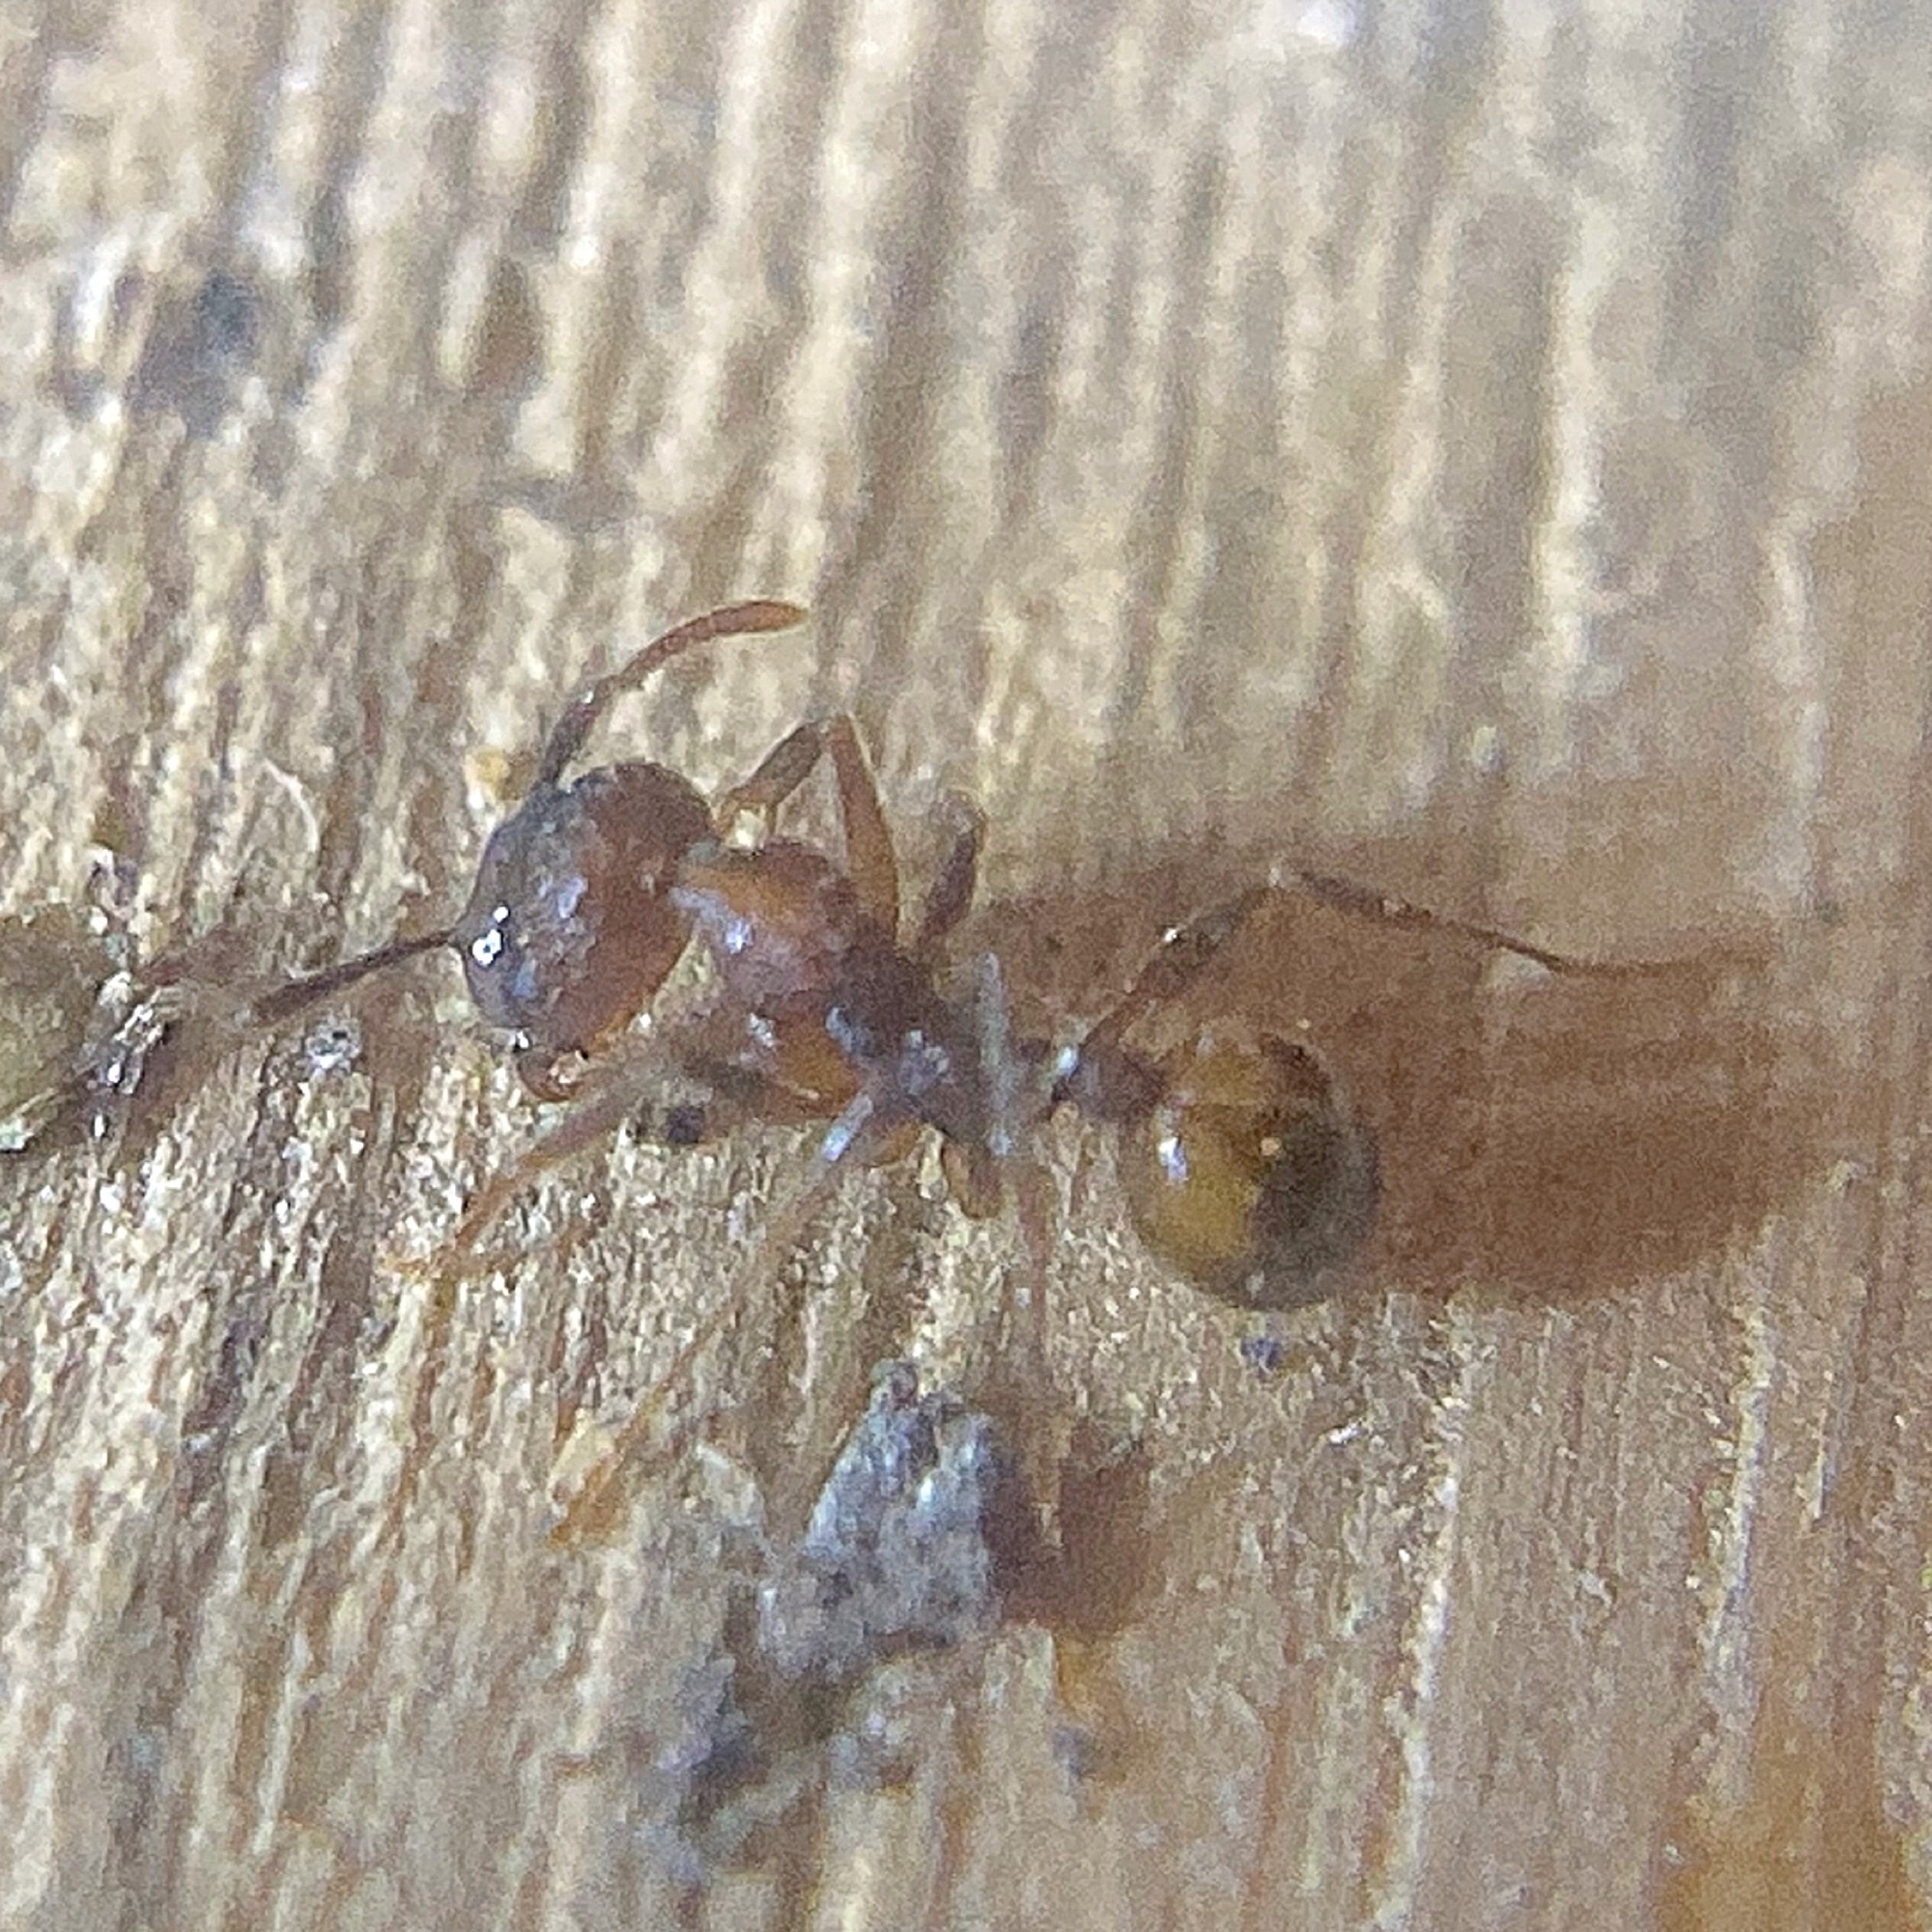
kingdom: Animalia
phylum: Arthropoda
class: Insecta
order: Hymenoptera
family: Formicidae
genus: Aphaenogaster
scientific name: Aphaenogaster fulva
